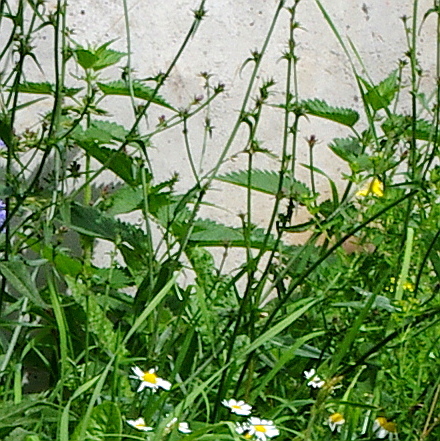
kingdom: Plantae
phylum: Tracheophyta
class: Magnoliopsida
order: Rosales
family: Urticaceae
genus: Urtica
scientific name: Urtica dioica
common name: Common nettle
